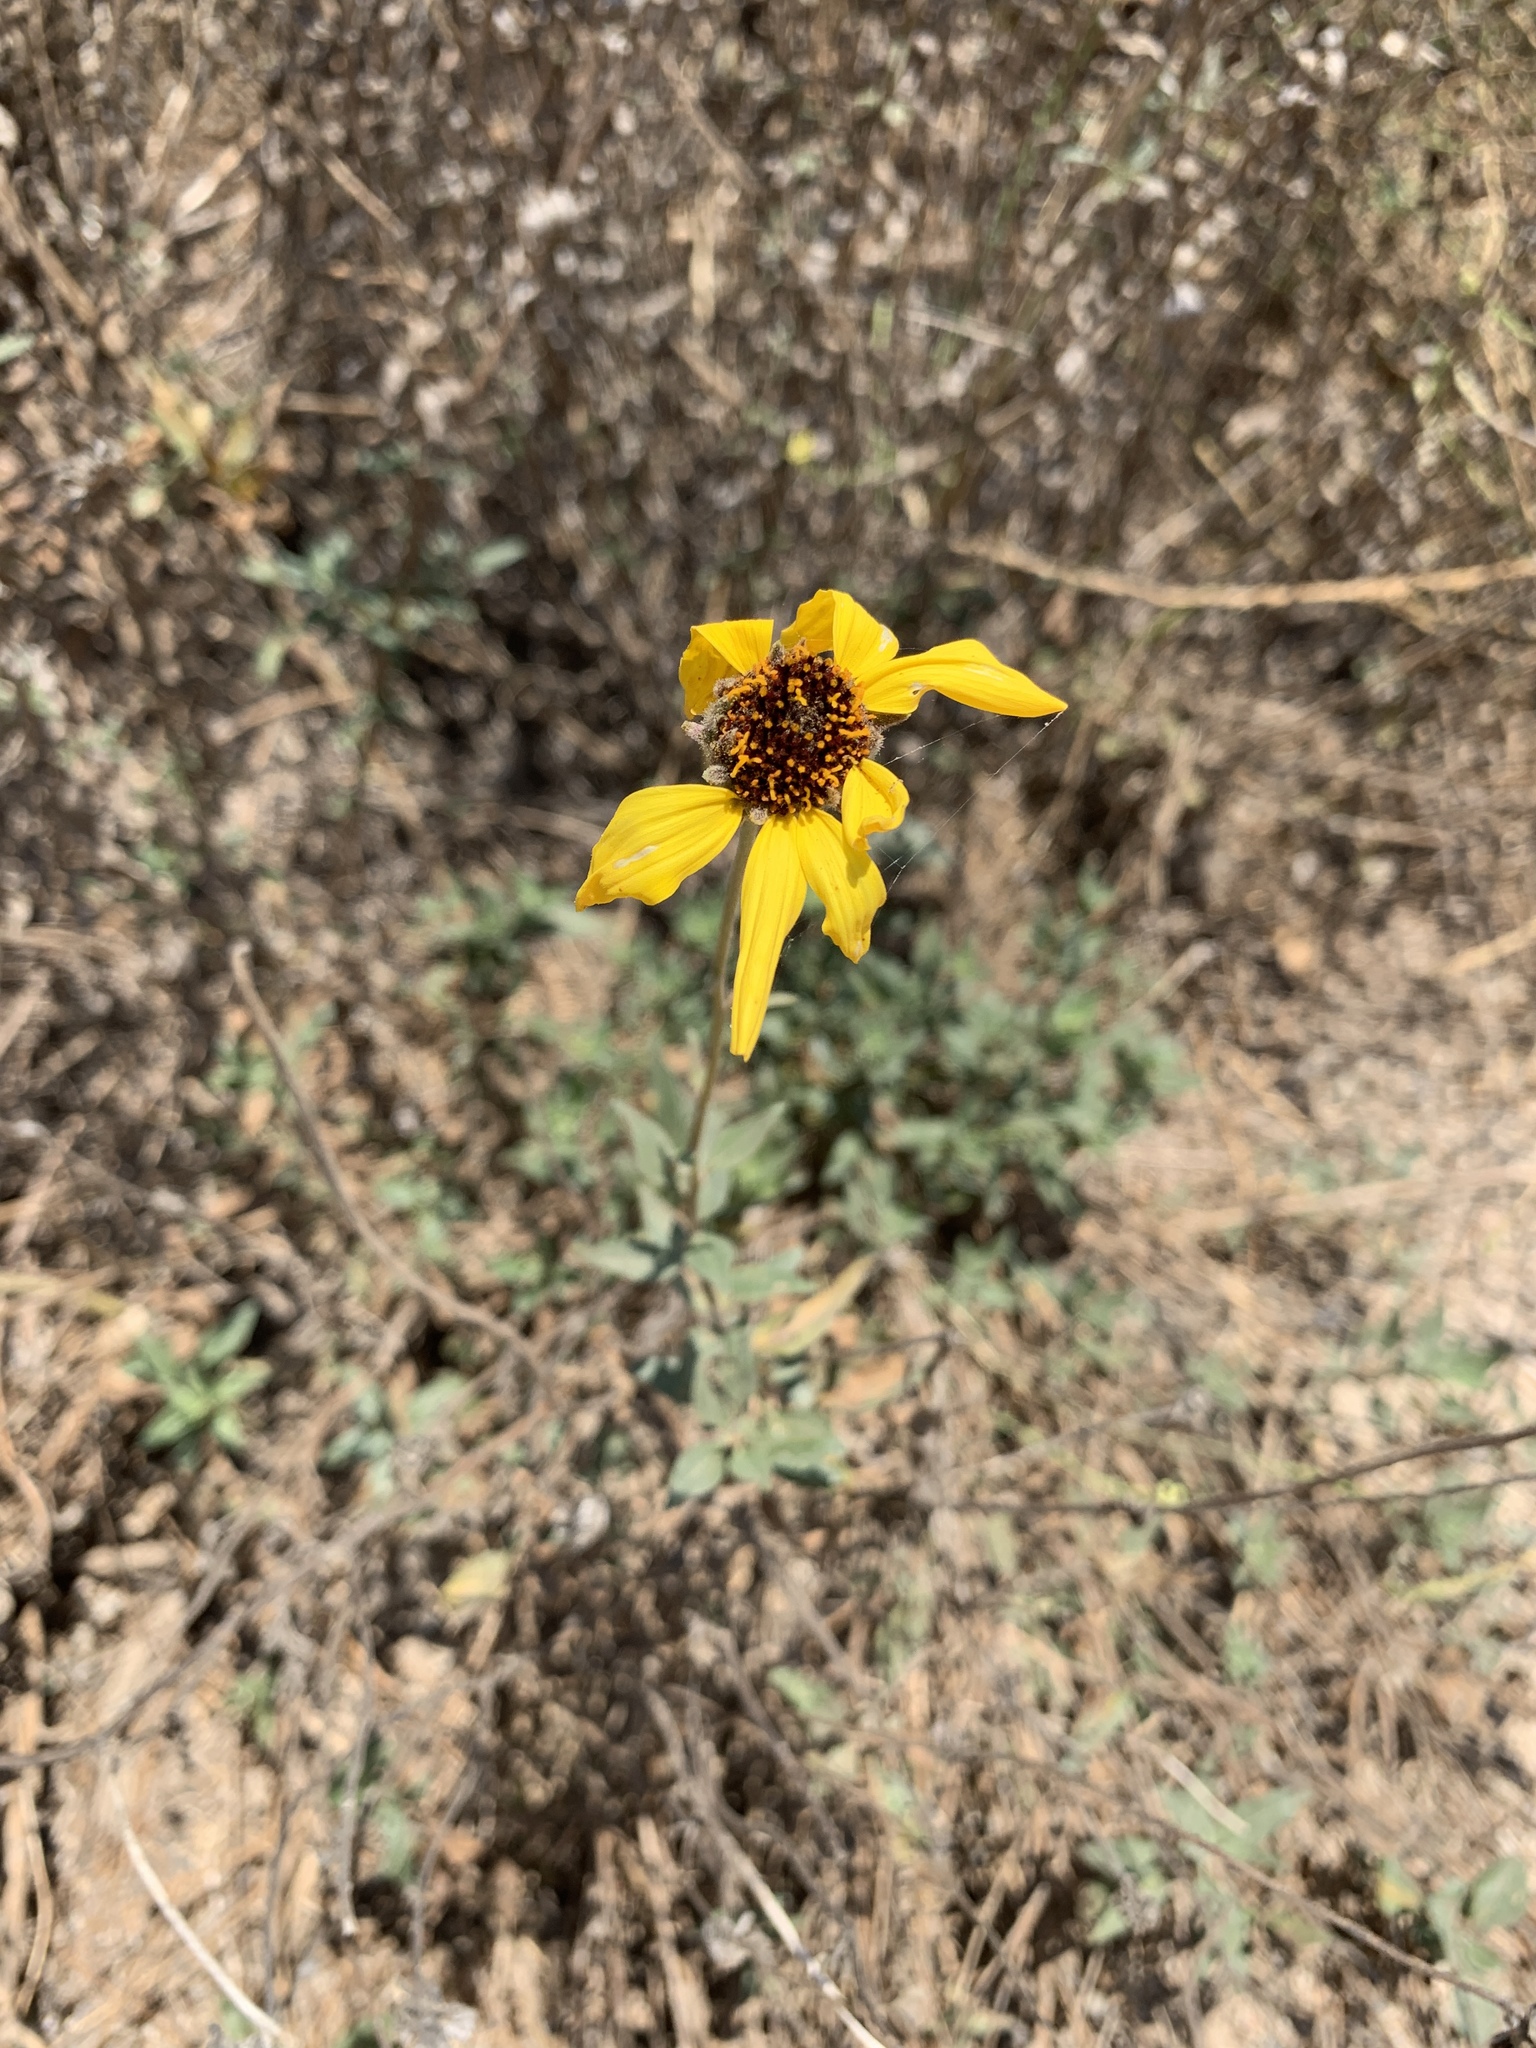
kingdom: Plantae
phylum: Tracheophyta
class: Magnoliopsida
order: Asterales
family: Asteraceae
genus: Encelia
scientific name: Encelia californica
